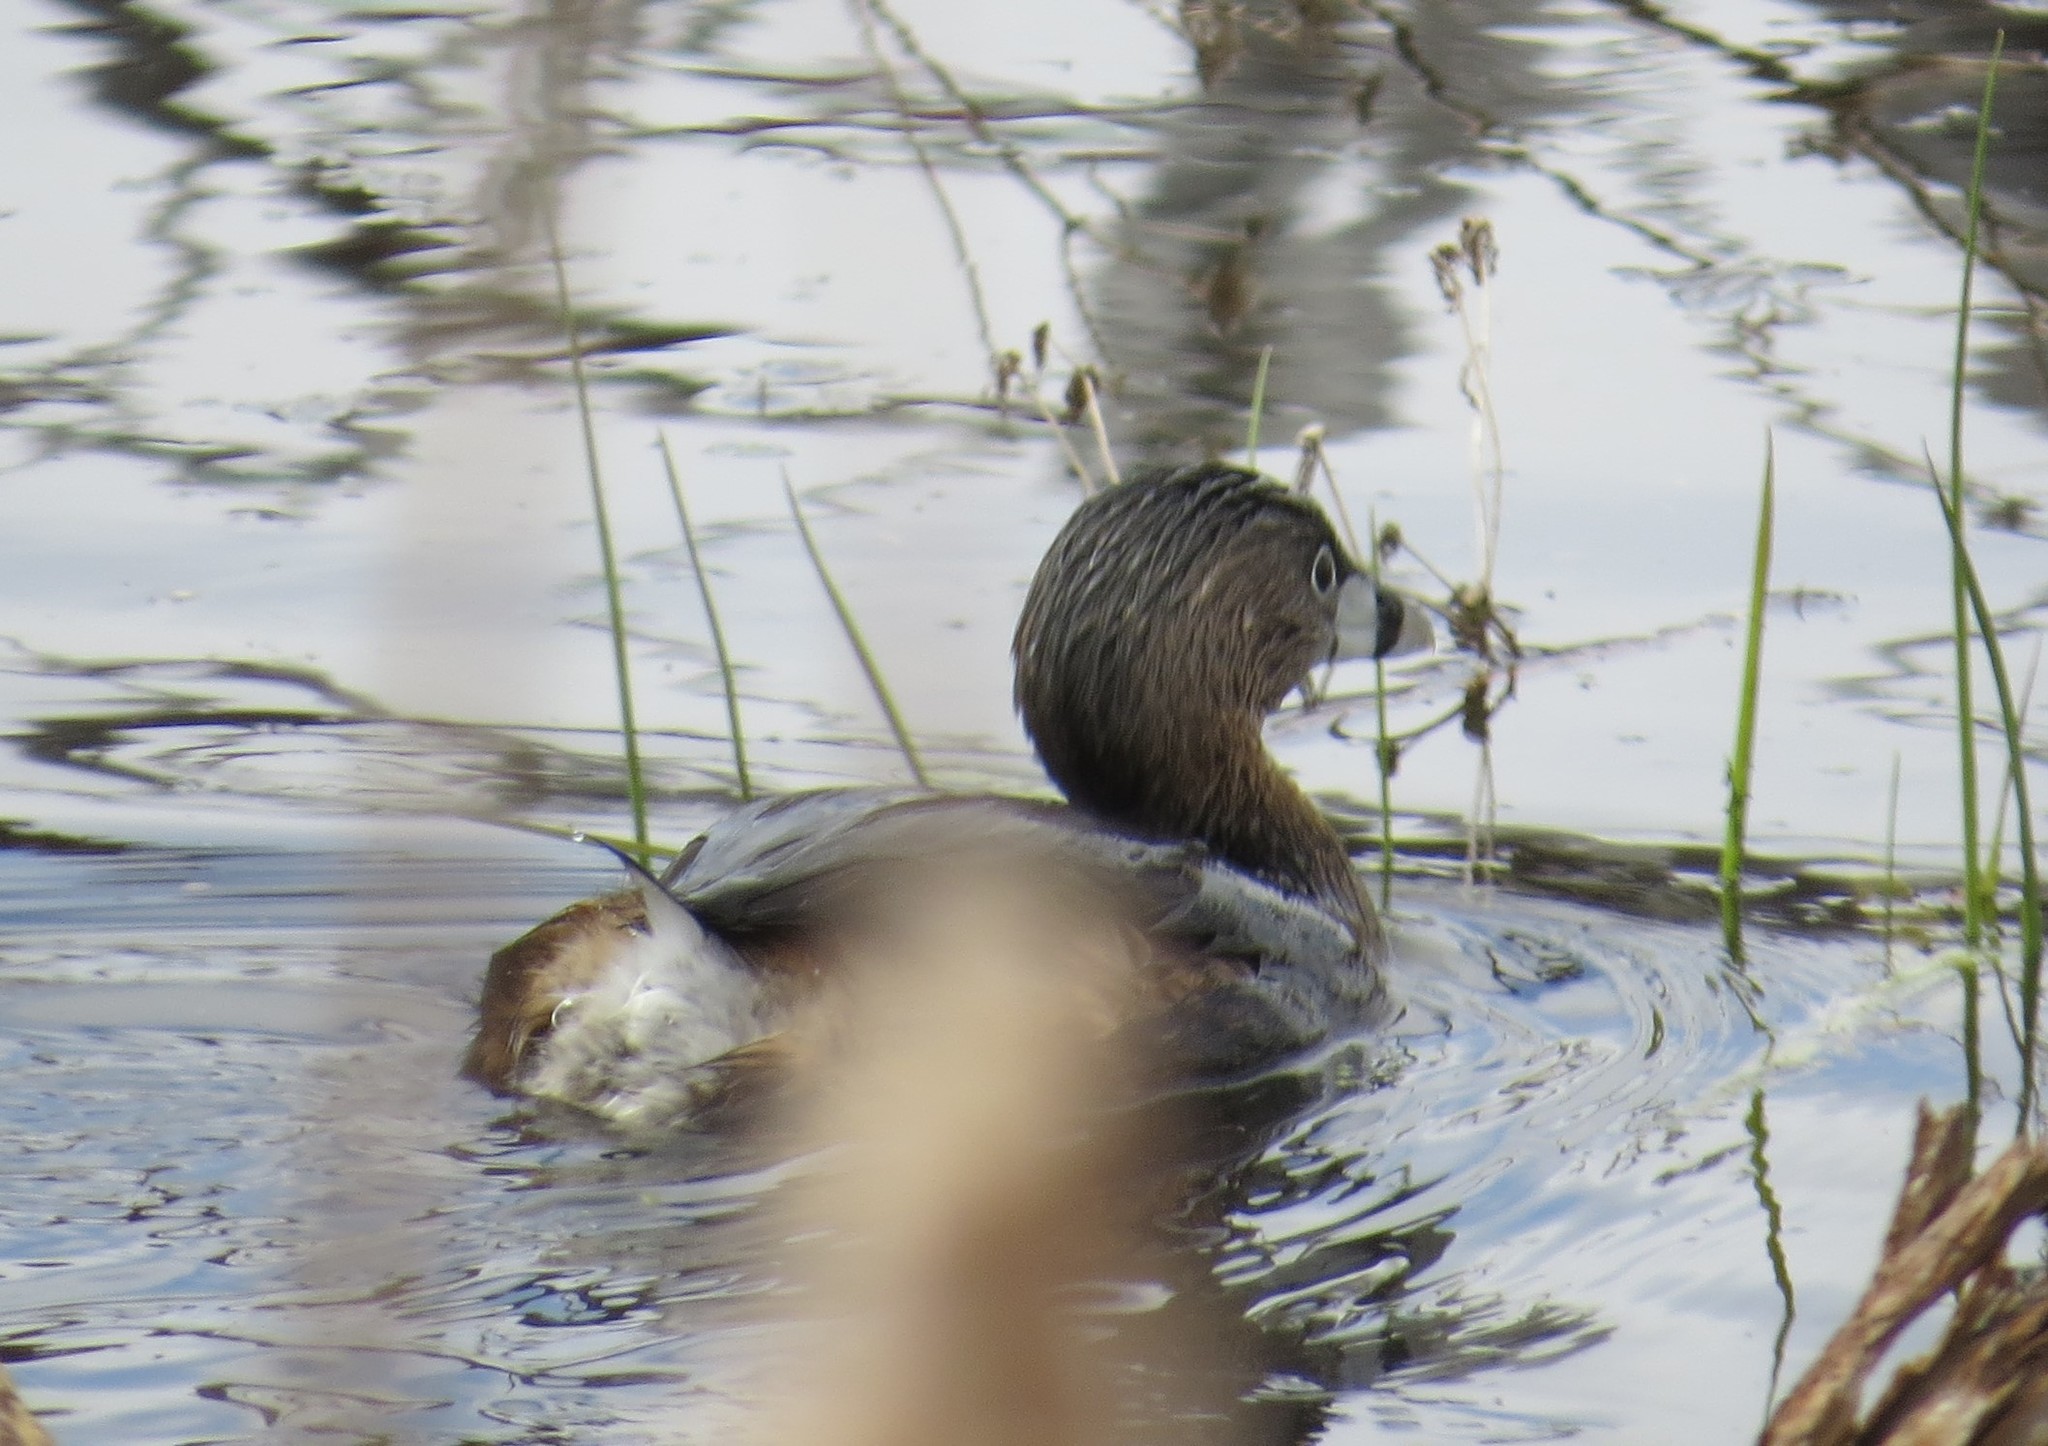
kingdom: Animalia
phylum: Chordata
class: Aves
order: Podicipediformes
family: Podicipedidae
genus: Podilymbus
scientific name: Podilymbus podiceps
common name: Pied-billed grebe
